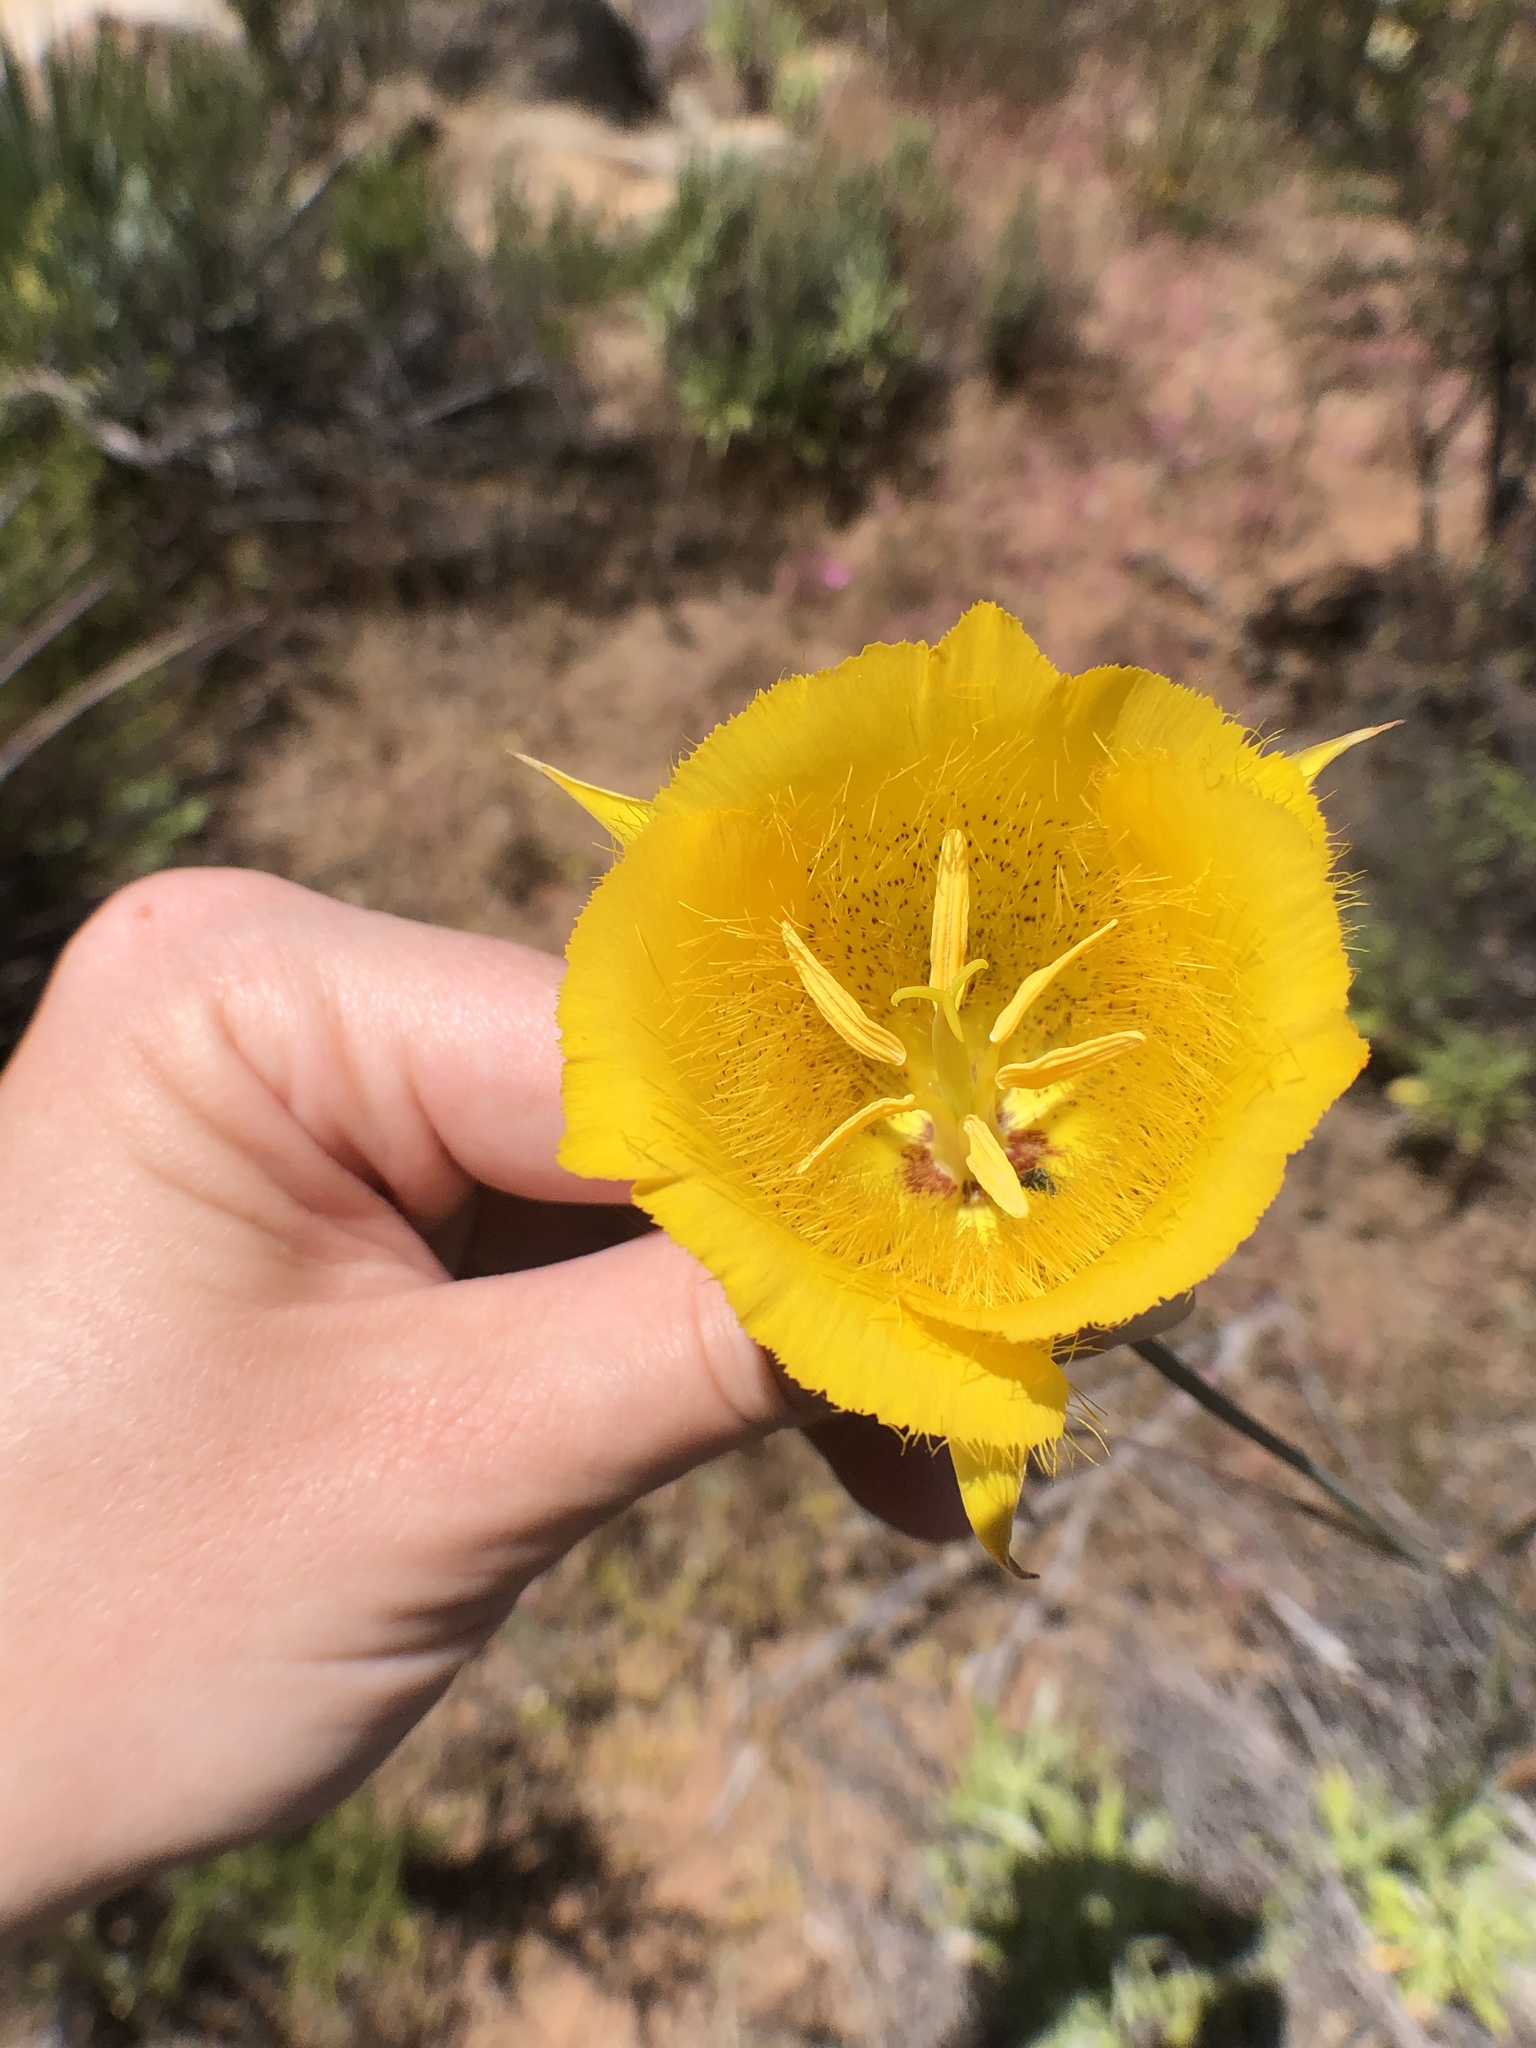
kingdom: Plantae
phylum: Tracheophyta
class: Liliopsida
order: Liliales
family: Liliaceae
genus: Calochortus
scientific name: Calochortus weedii
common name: Weed's mariposa-lily
